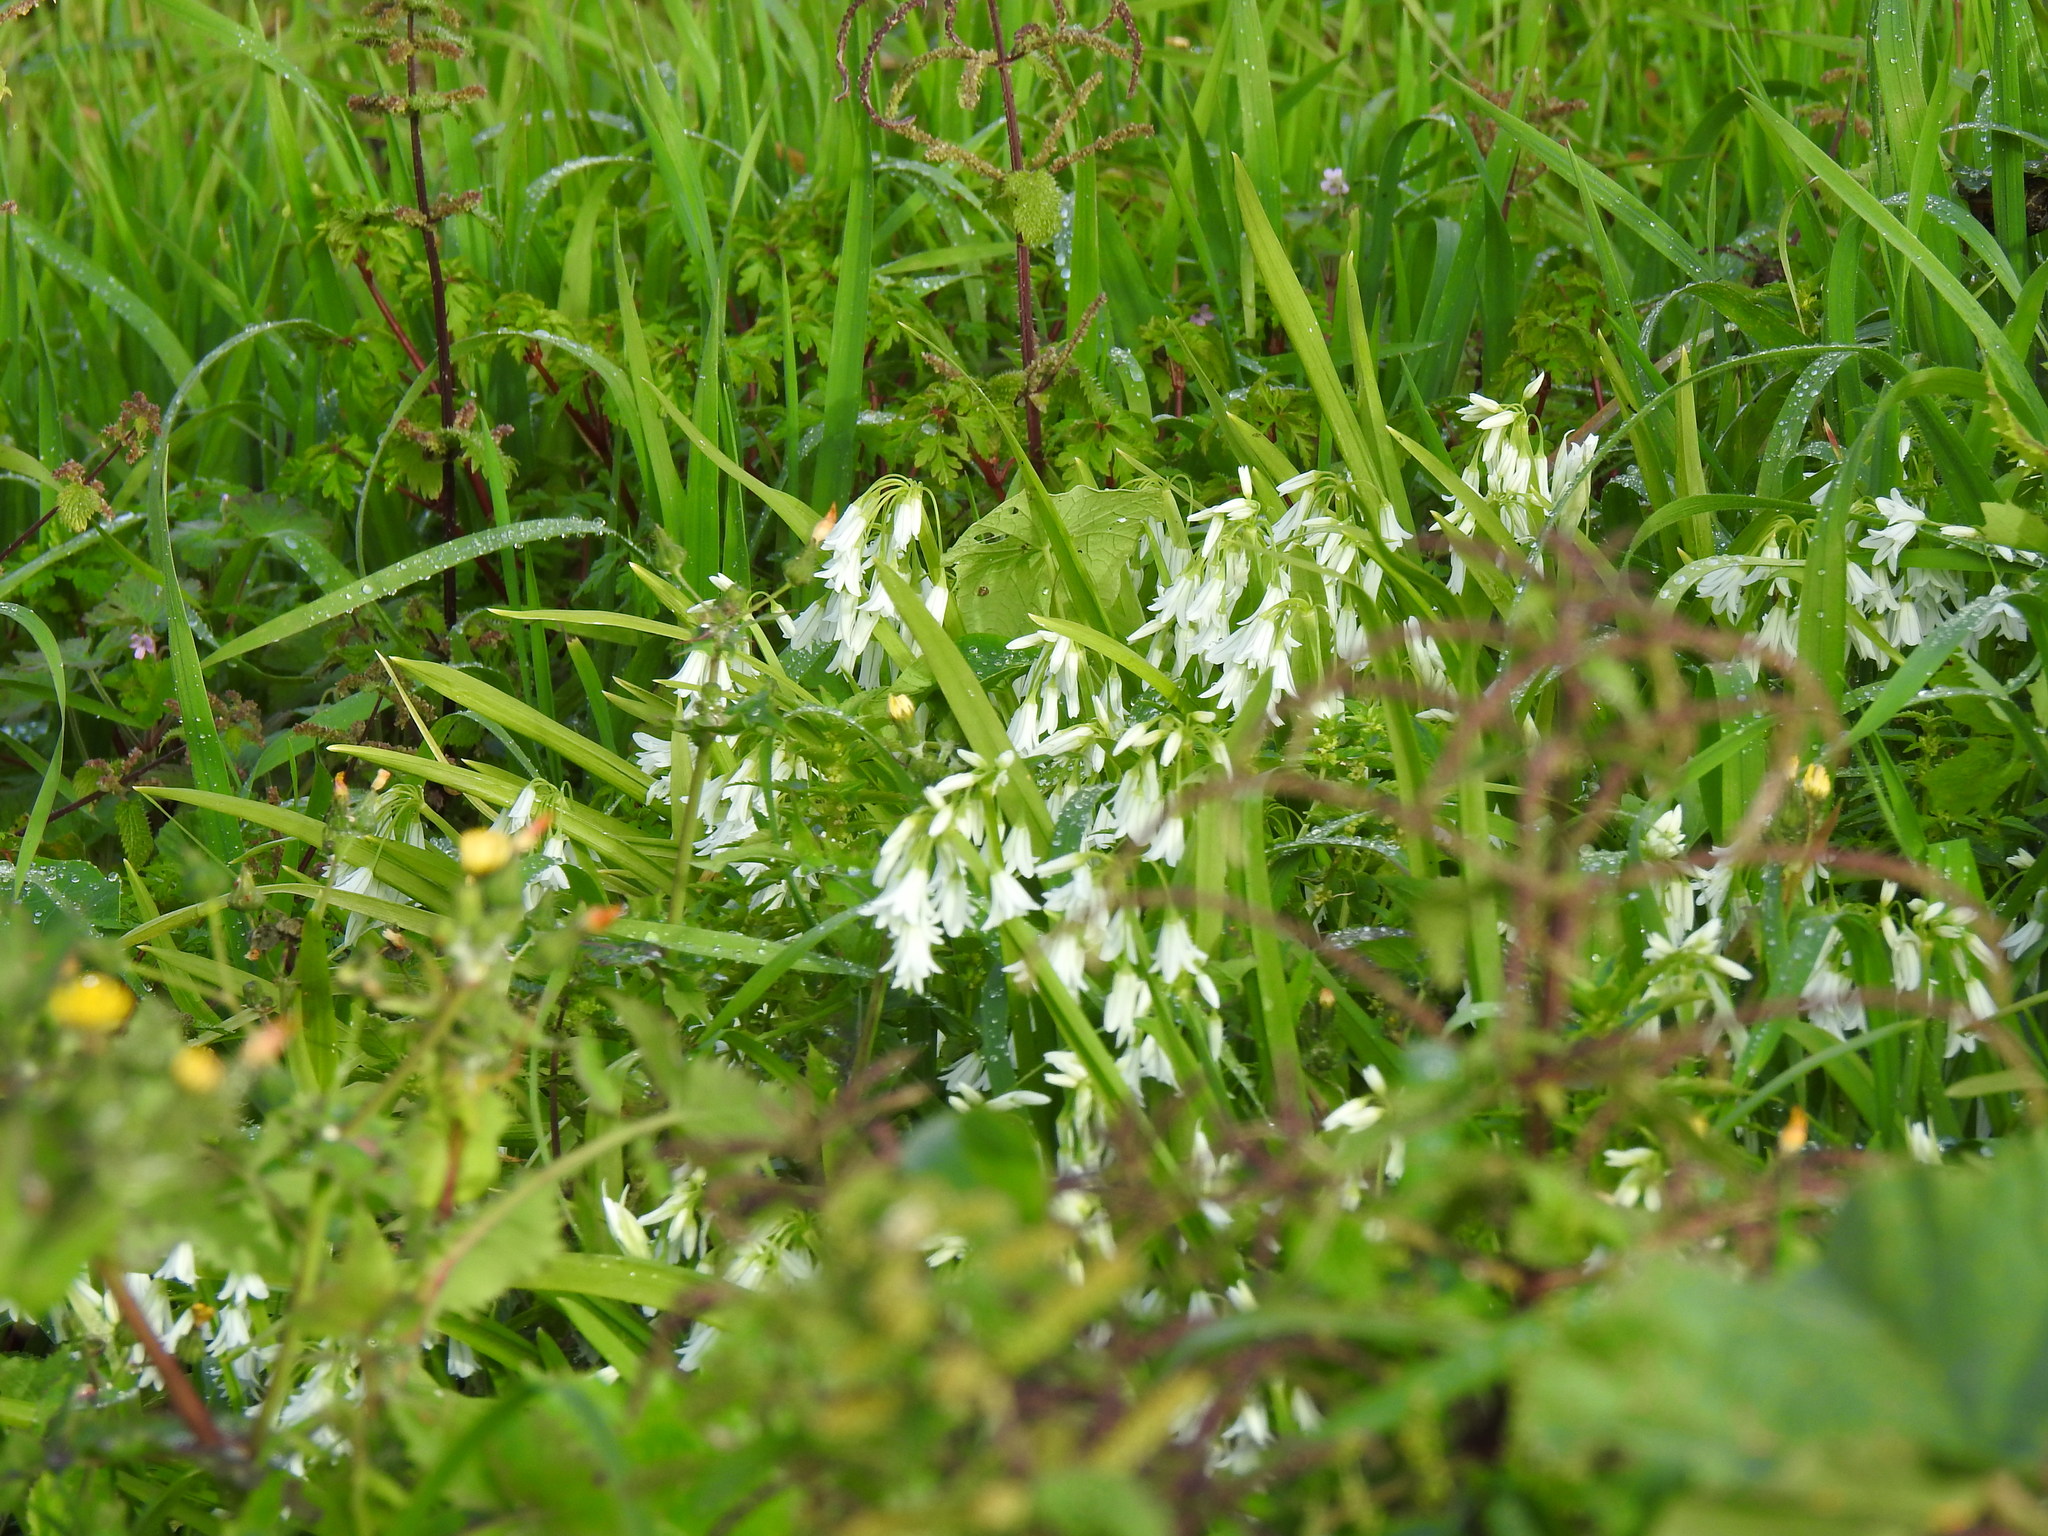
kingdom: Plantae
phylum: Tracheophyta
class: Liliopsida
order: Asparagales
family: Amaryllidaceae
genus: Allium
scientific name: Allium triquetrum
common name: Three-cornered garlic
